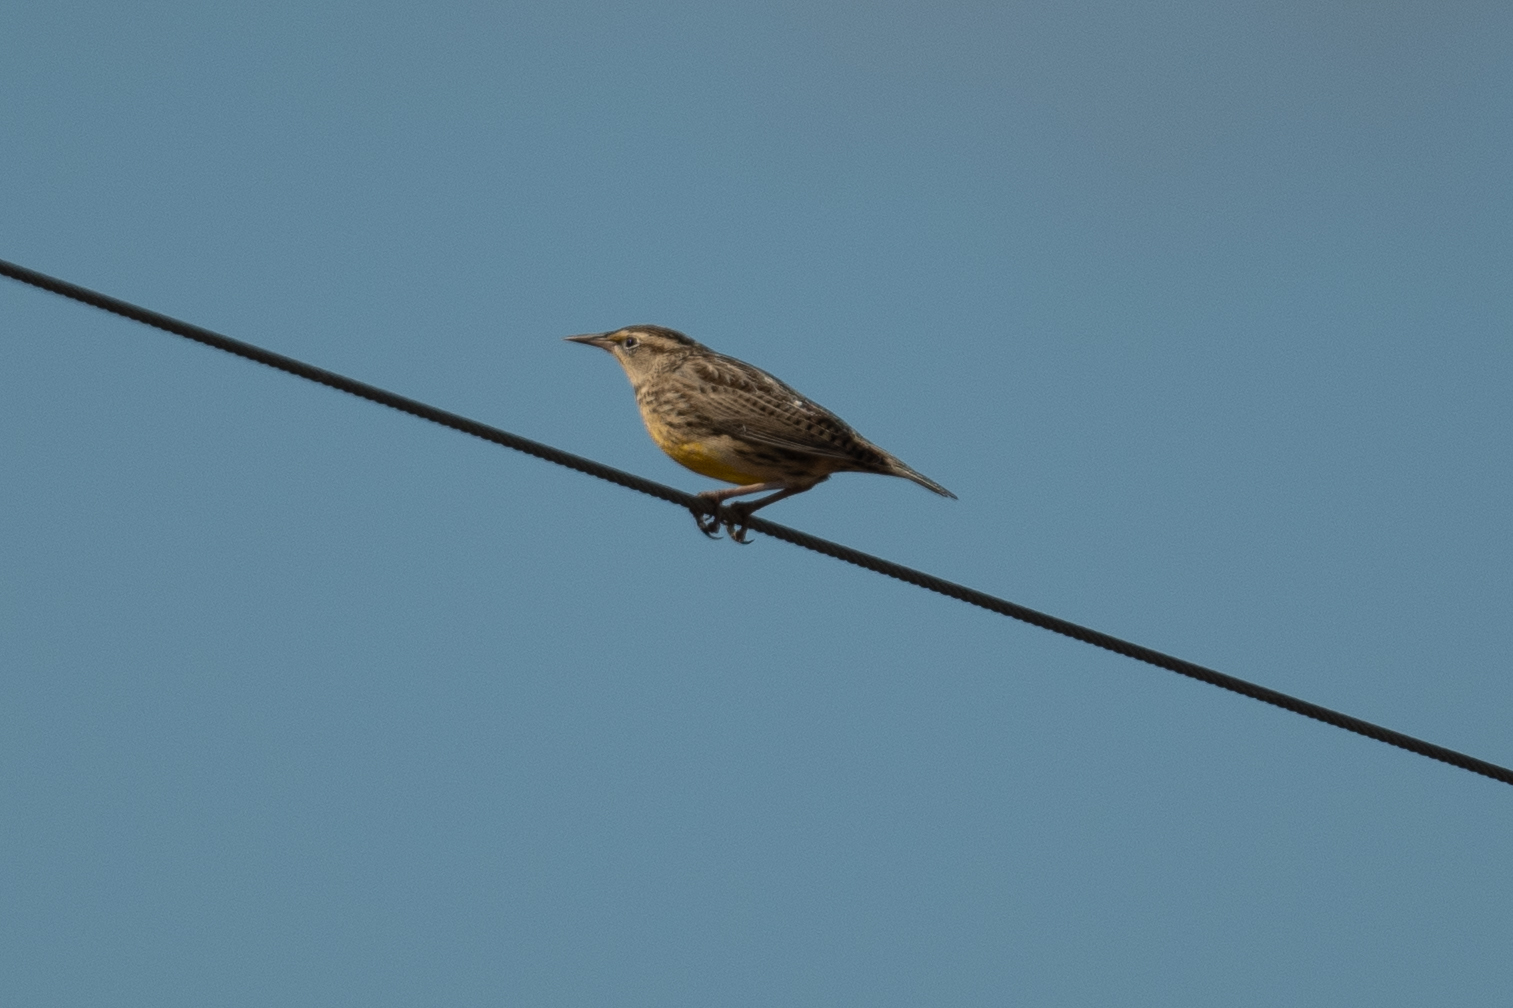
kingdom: Animalia
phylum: Chordata
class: Aves
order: Passeriformes
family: Icteridae
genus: Sturnella
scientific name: Sturnella neglecta
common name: Western meadowlark
